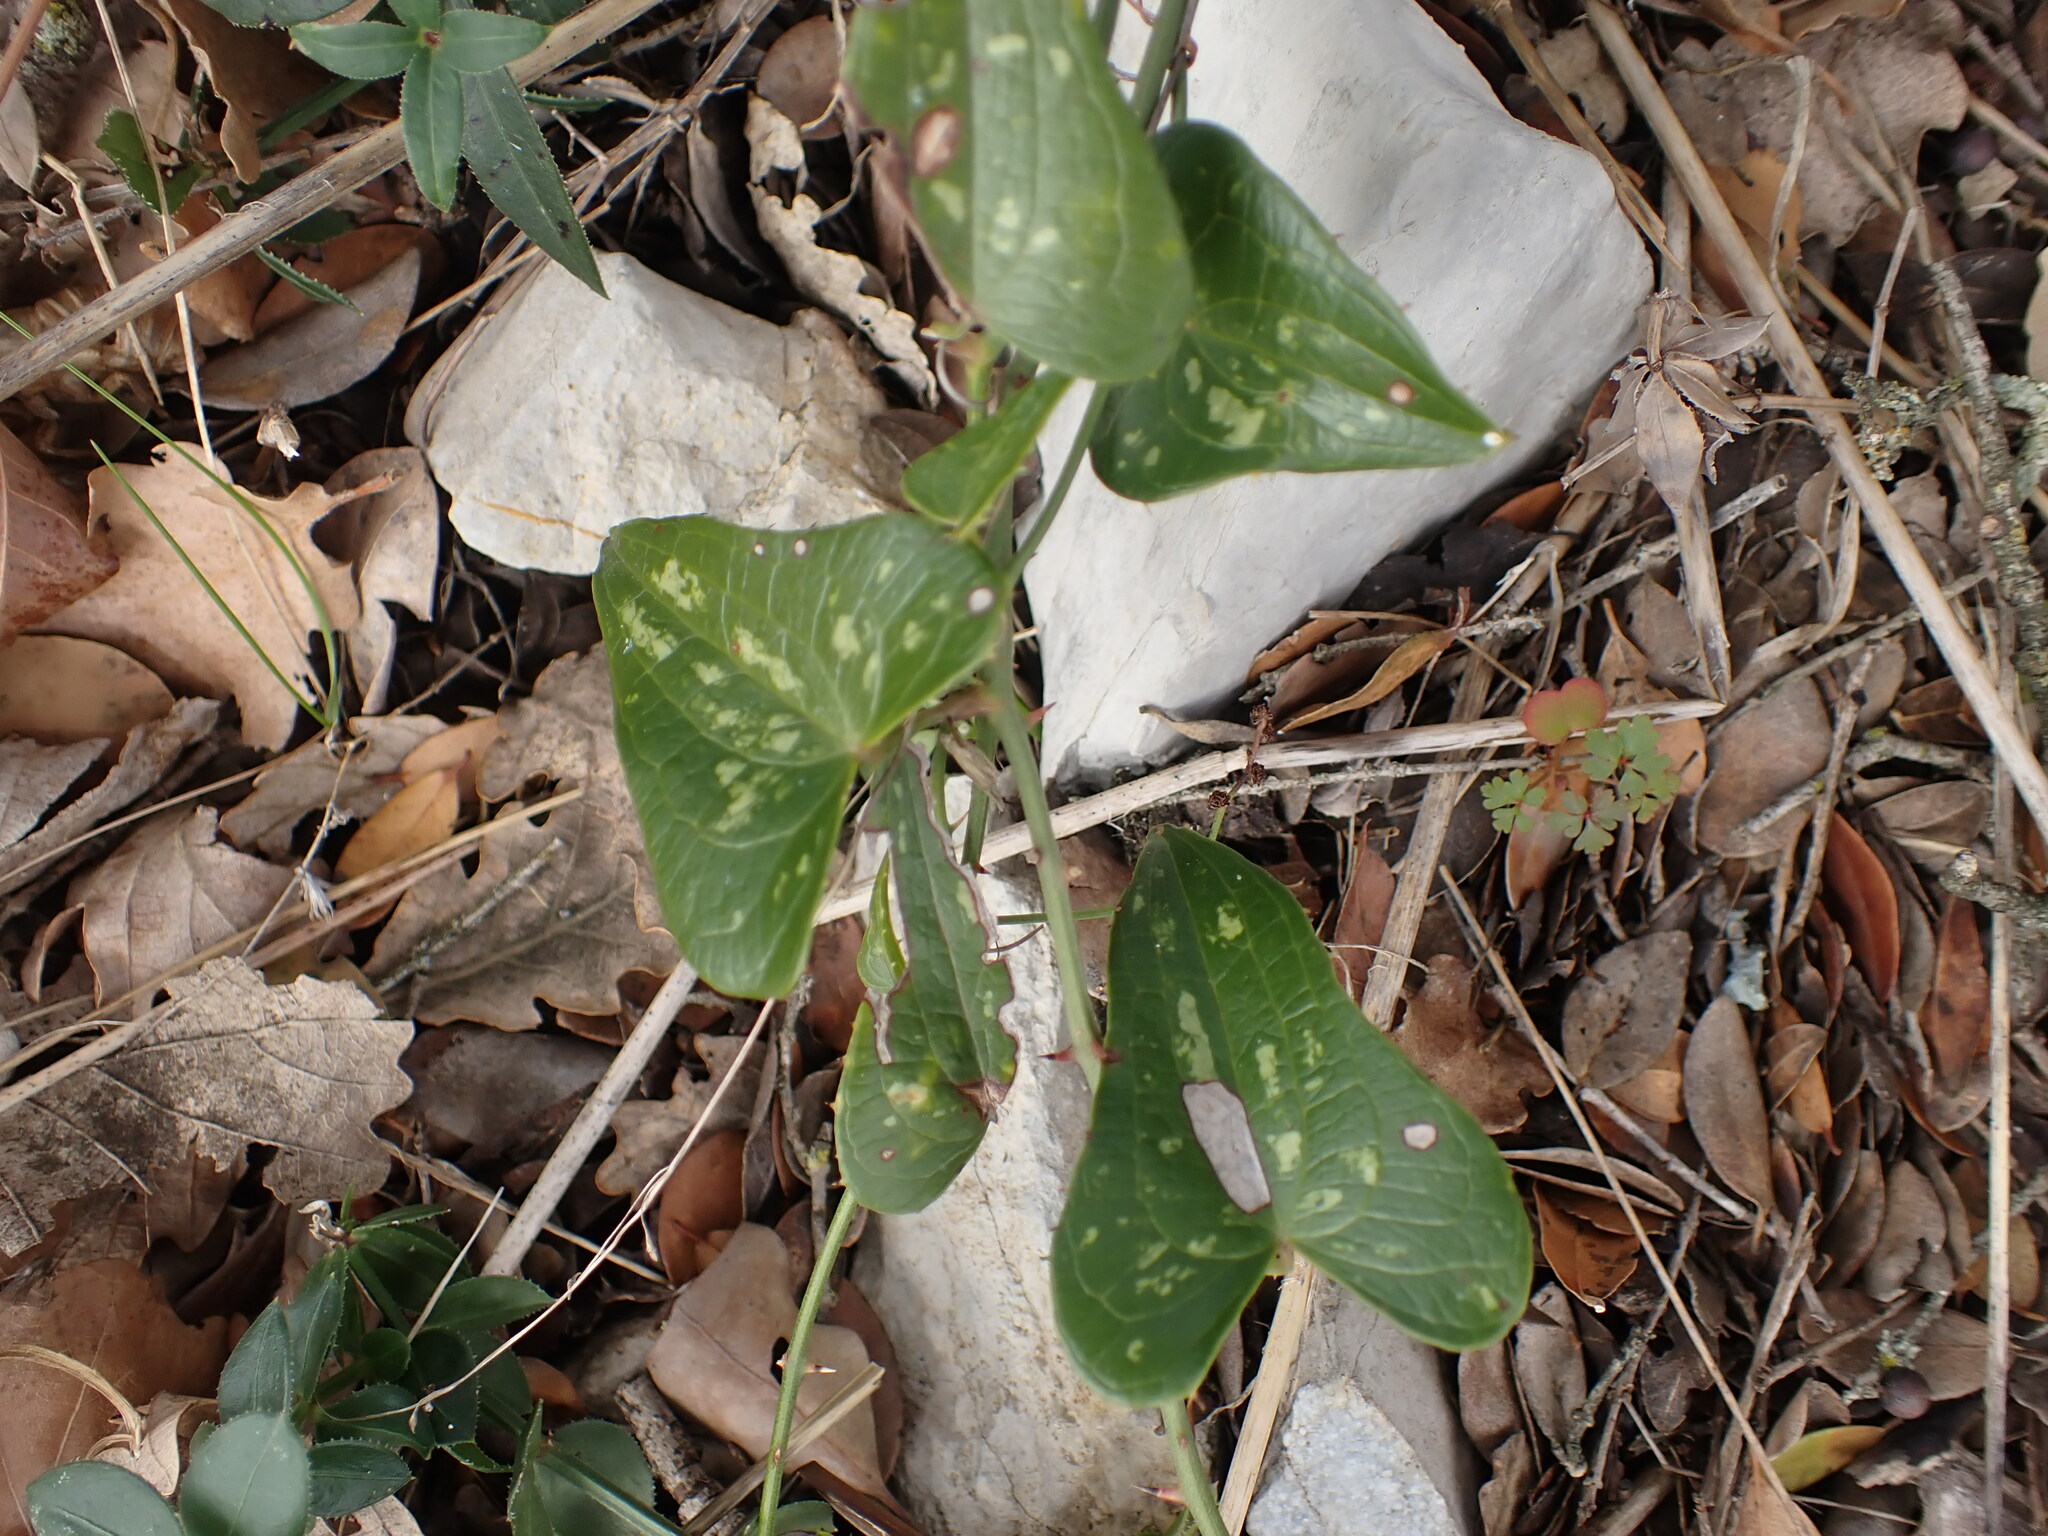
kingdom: Plantae
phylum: Tracheophyta
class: Liliopsida
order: Liliales
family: Smilacaceae
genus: Smilax
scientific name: Smilax aspera
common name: Common smilax
